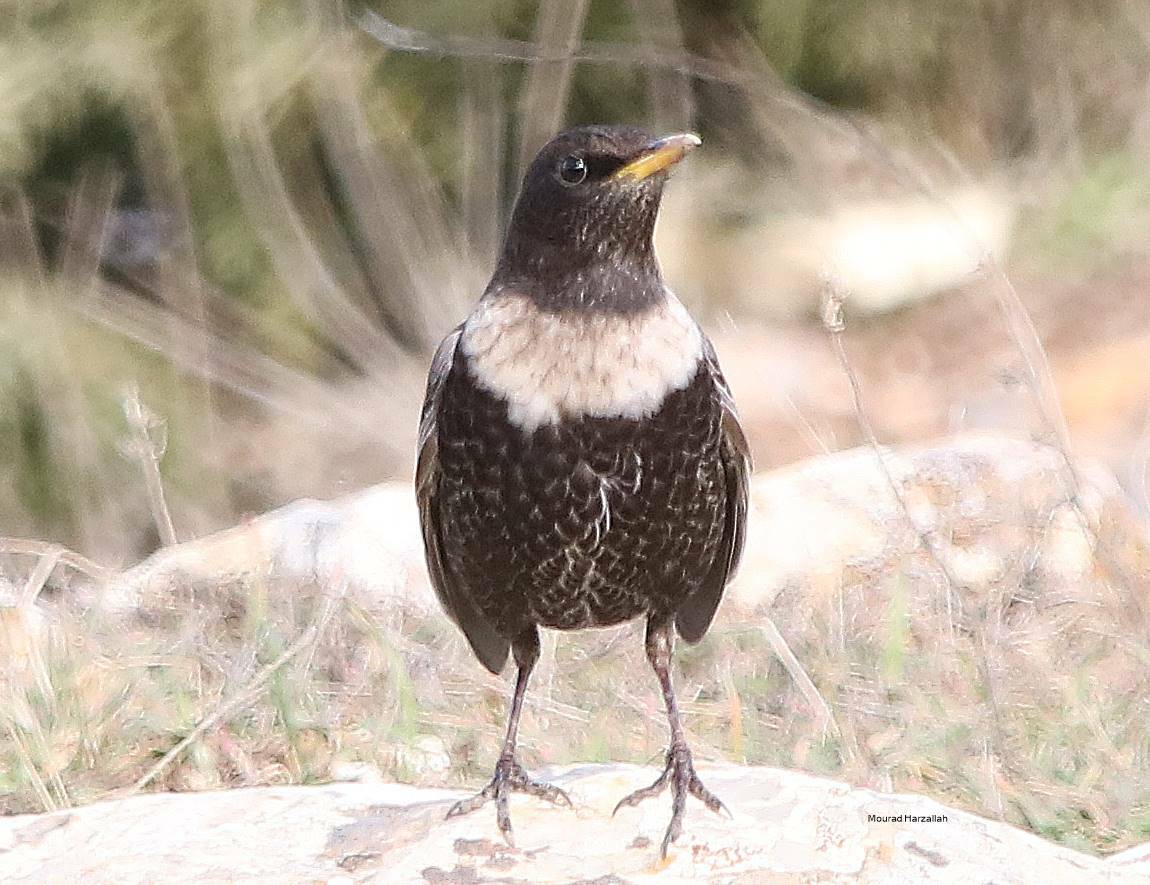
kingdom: Animalia
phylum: Chordata
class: Aves
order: Passeriformes
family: Turdidae
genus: Turdus
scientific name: Turdus torquatus
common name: Ring ouzel
